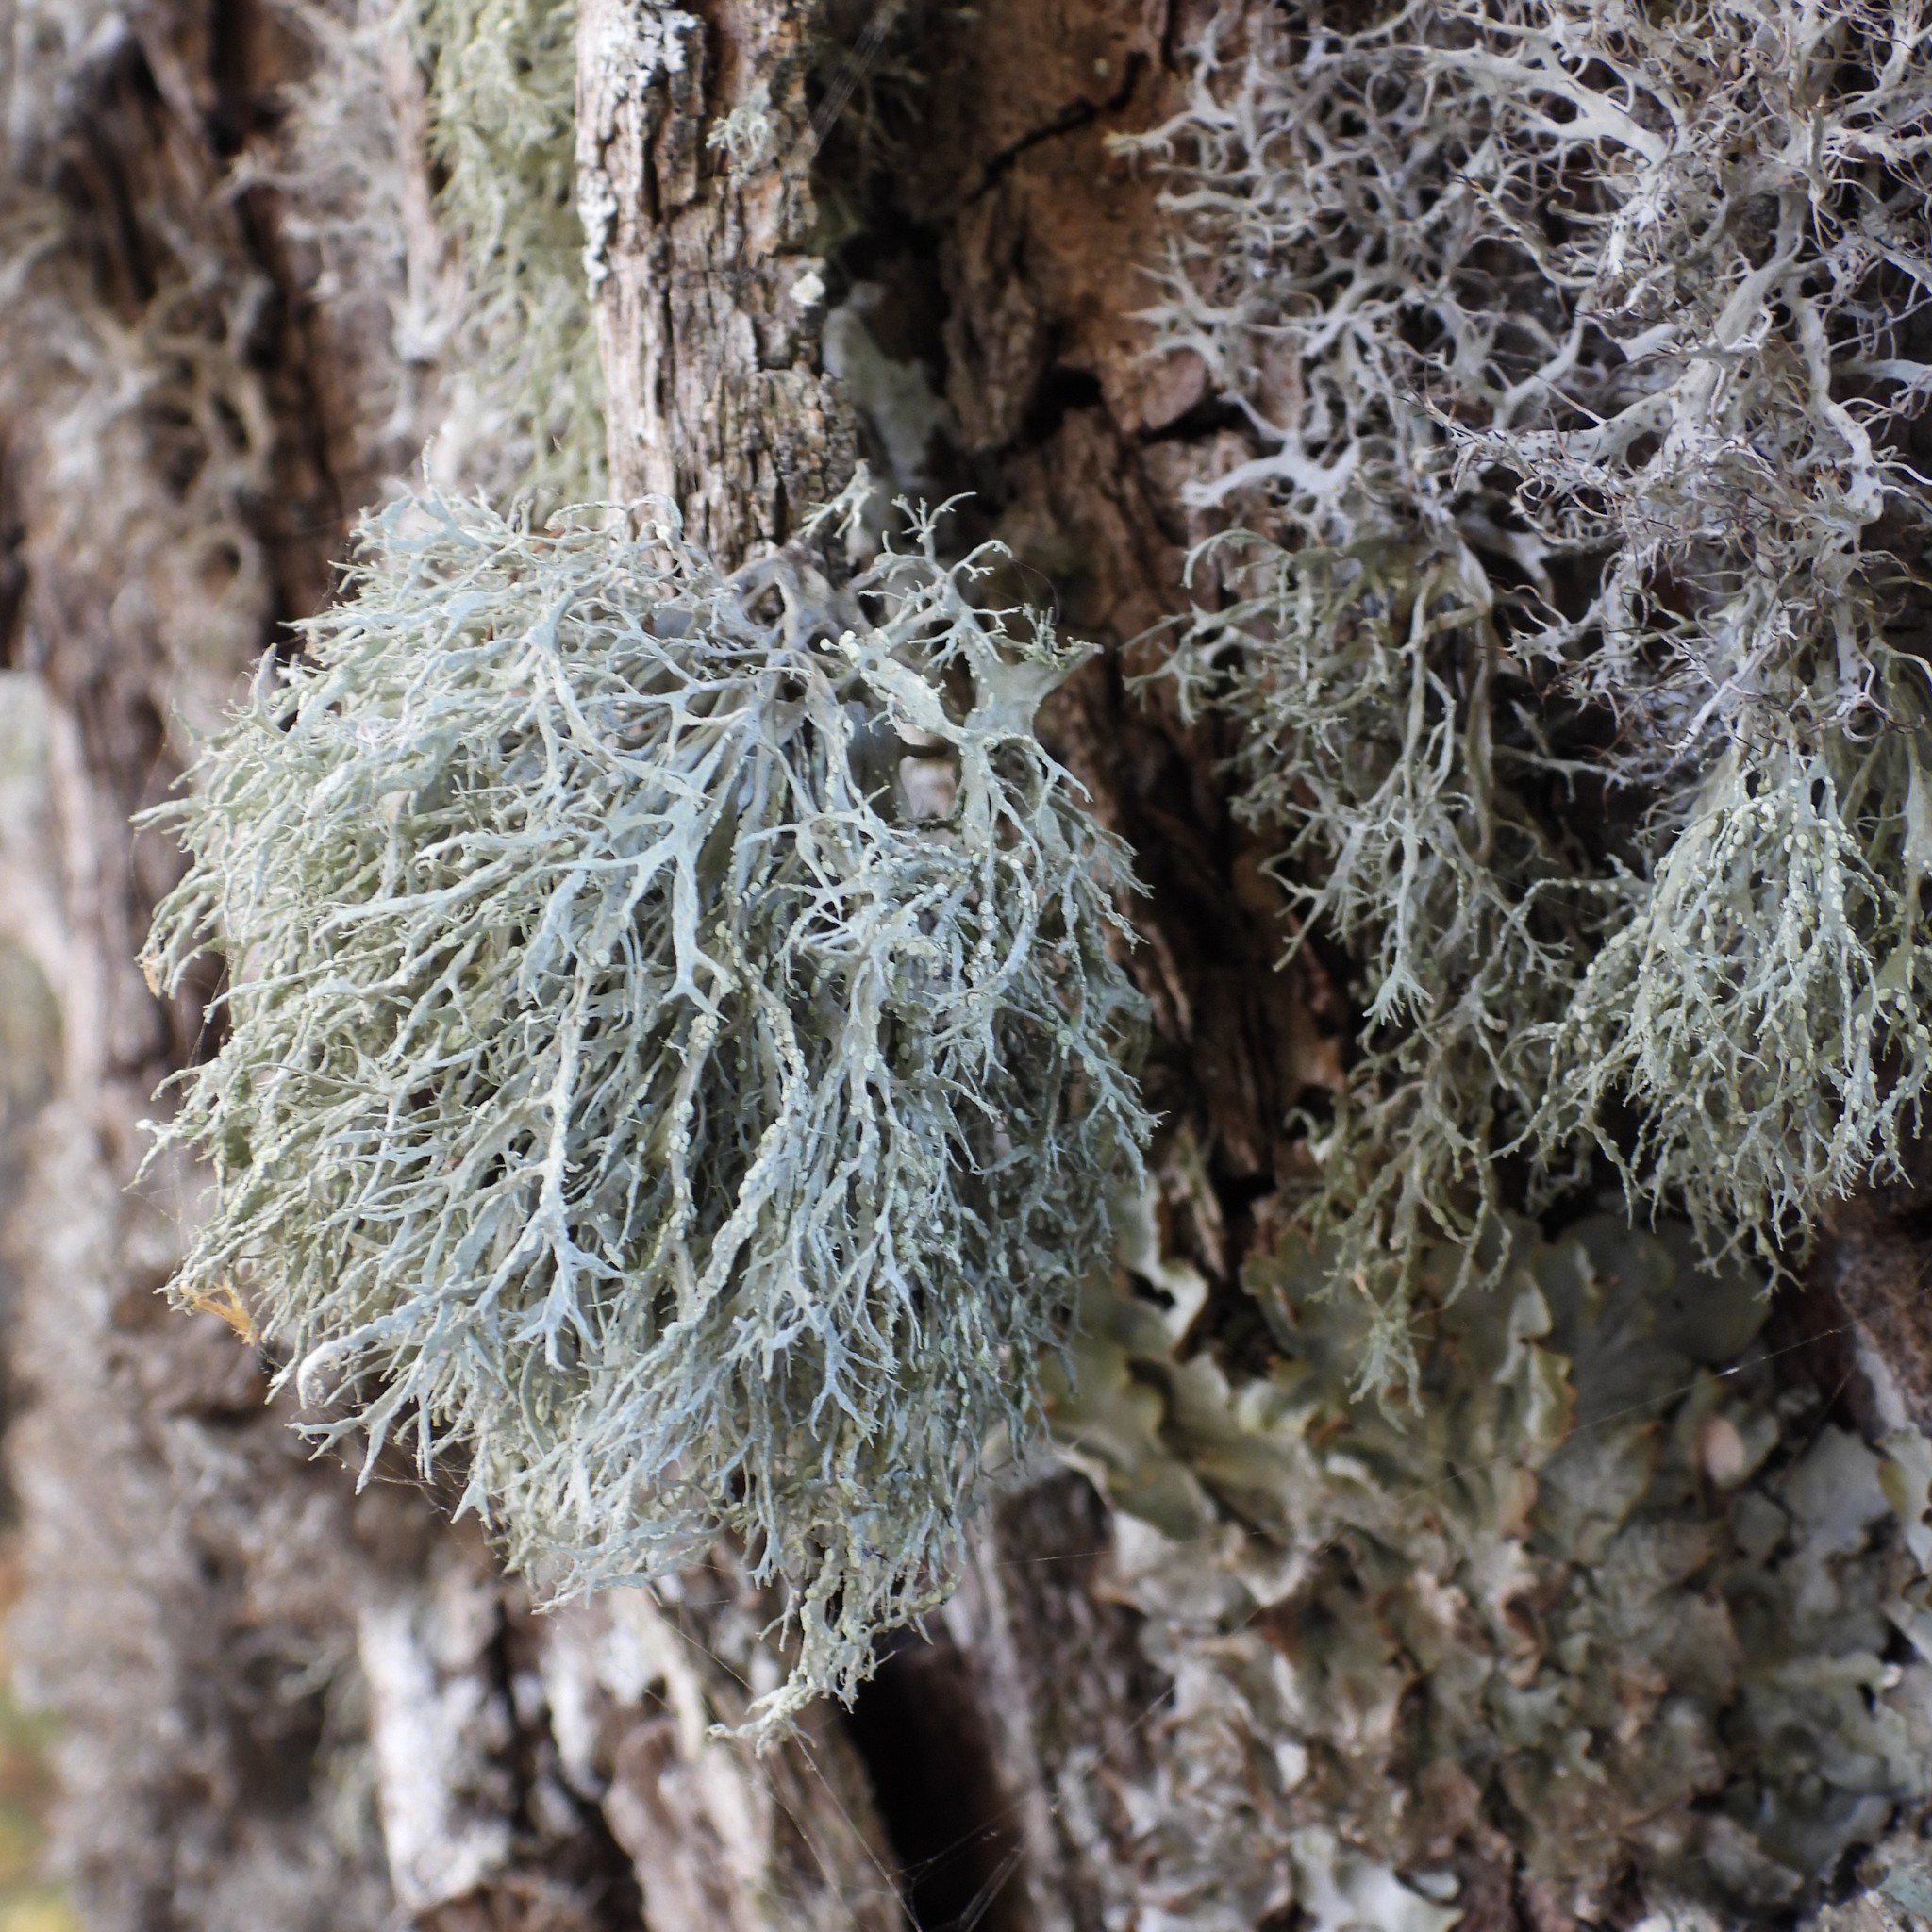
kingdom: Fungi
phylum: Ascomycota
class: Lecanoromycetes
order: Lecanorales
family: Ramalinaceae
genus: Ramalina
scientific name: Ramalina farinacea
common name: Farinose cartilage lichen
